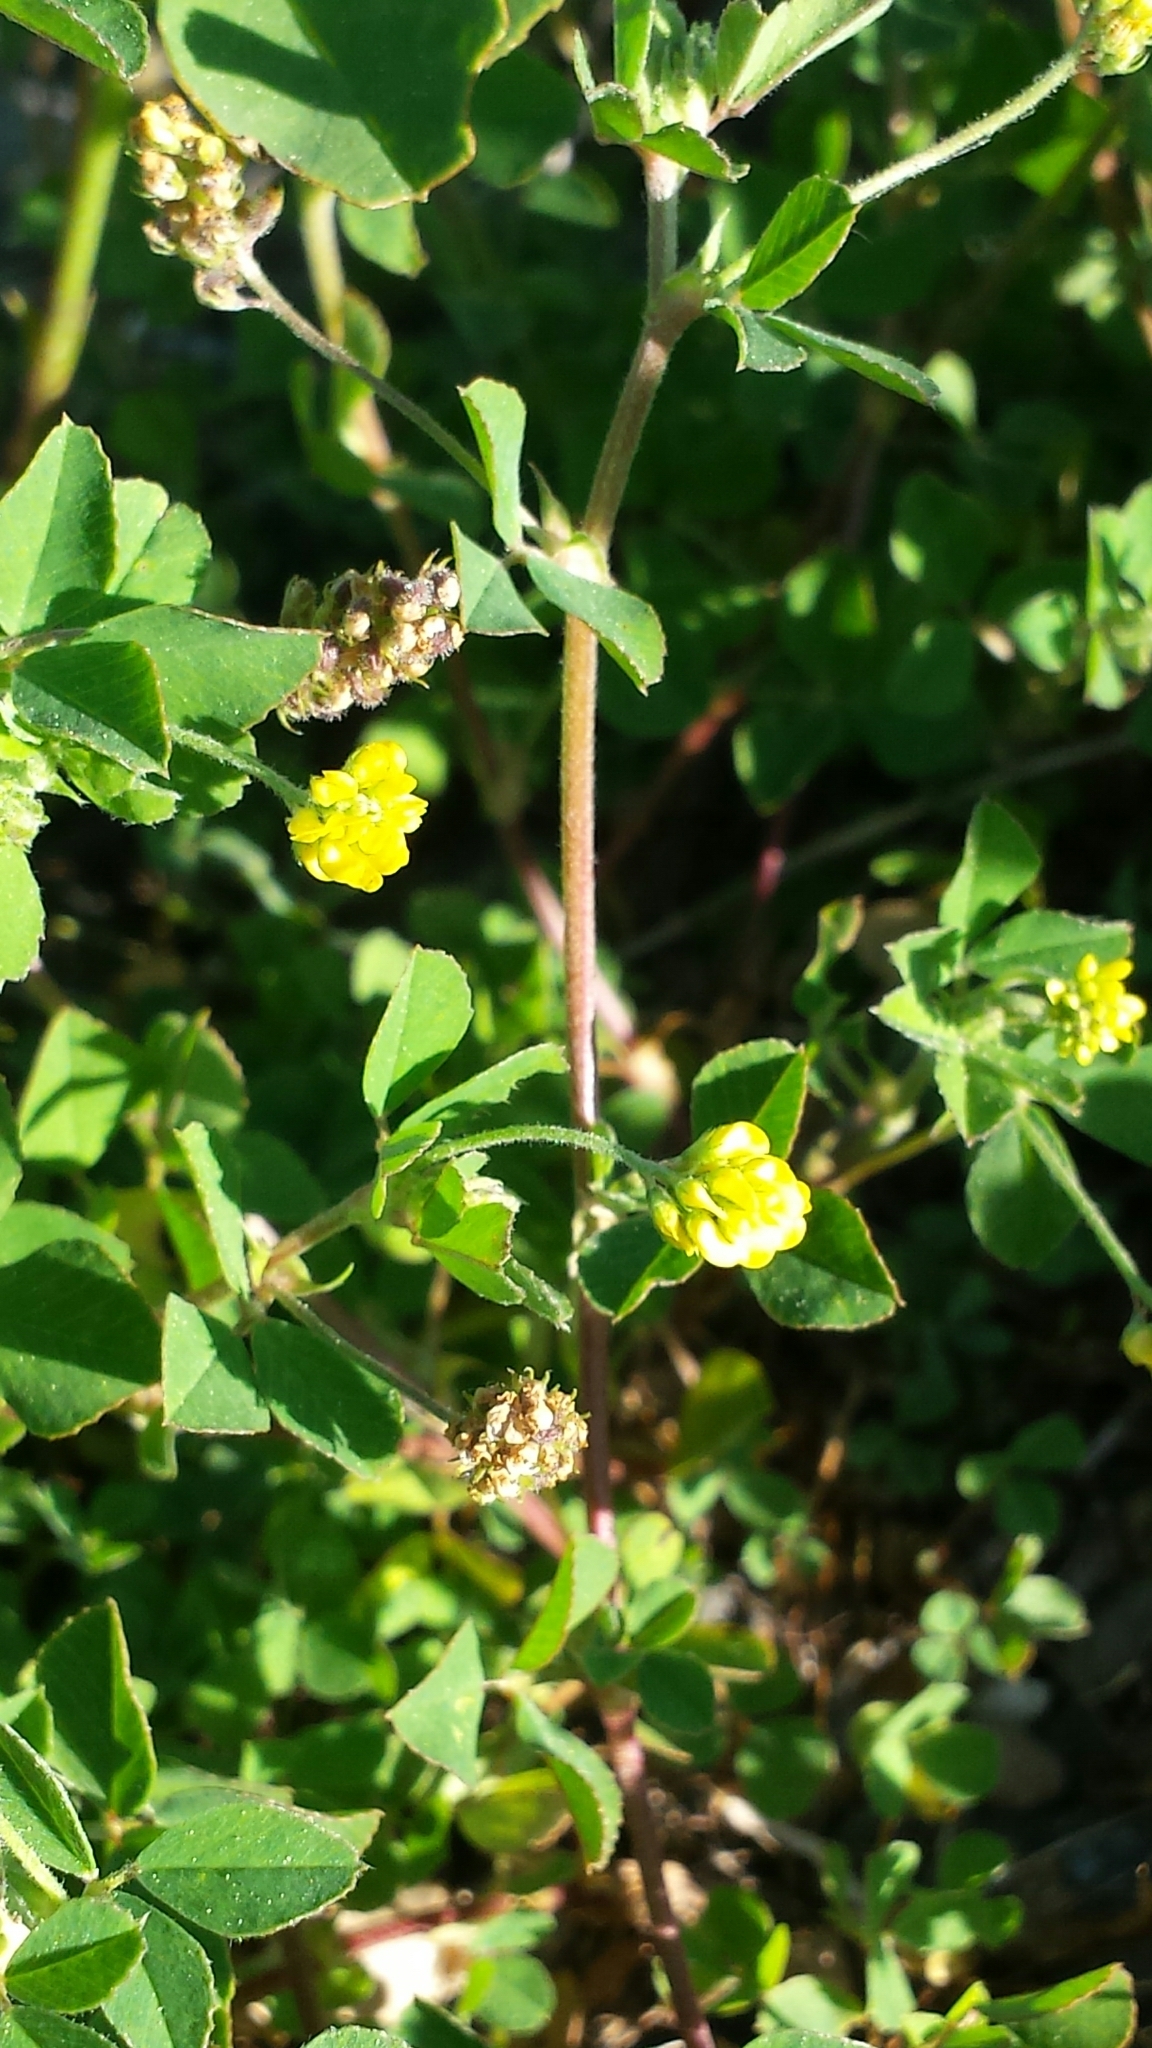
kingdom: Plantae
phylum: Tracheophyta
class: Magnoliopsida
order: Fabales
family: Fabaceae
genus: Medicago
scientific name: Medicago lupulina
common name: Black medick
